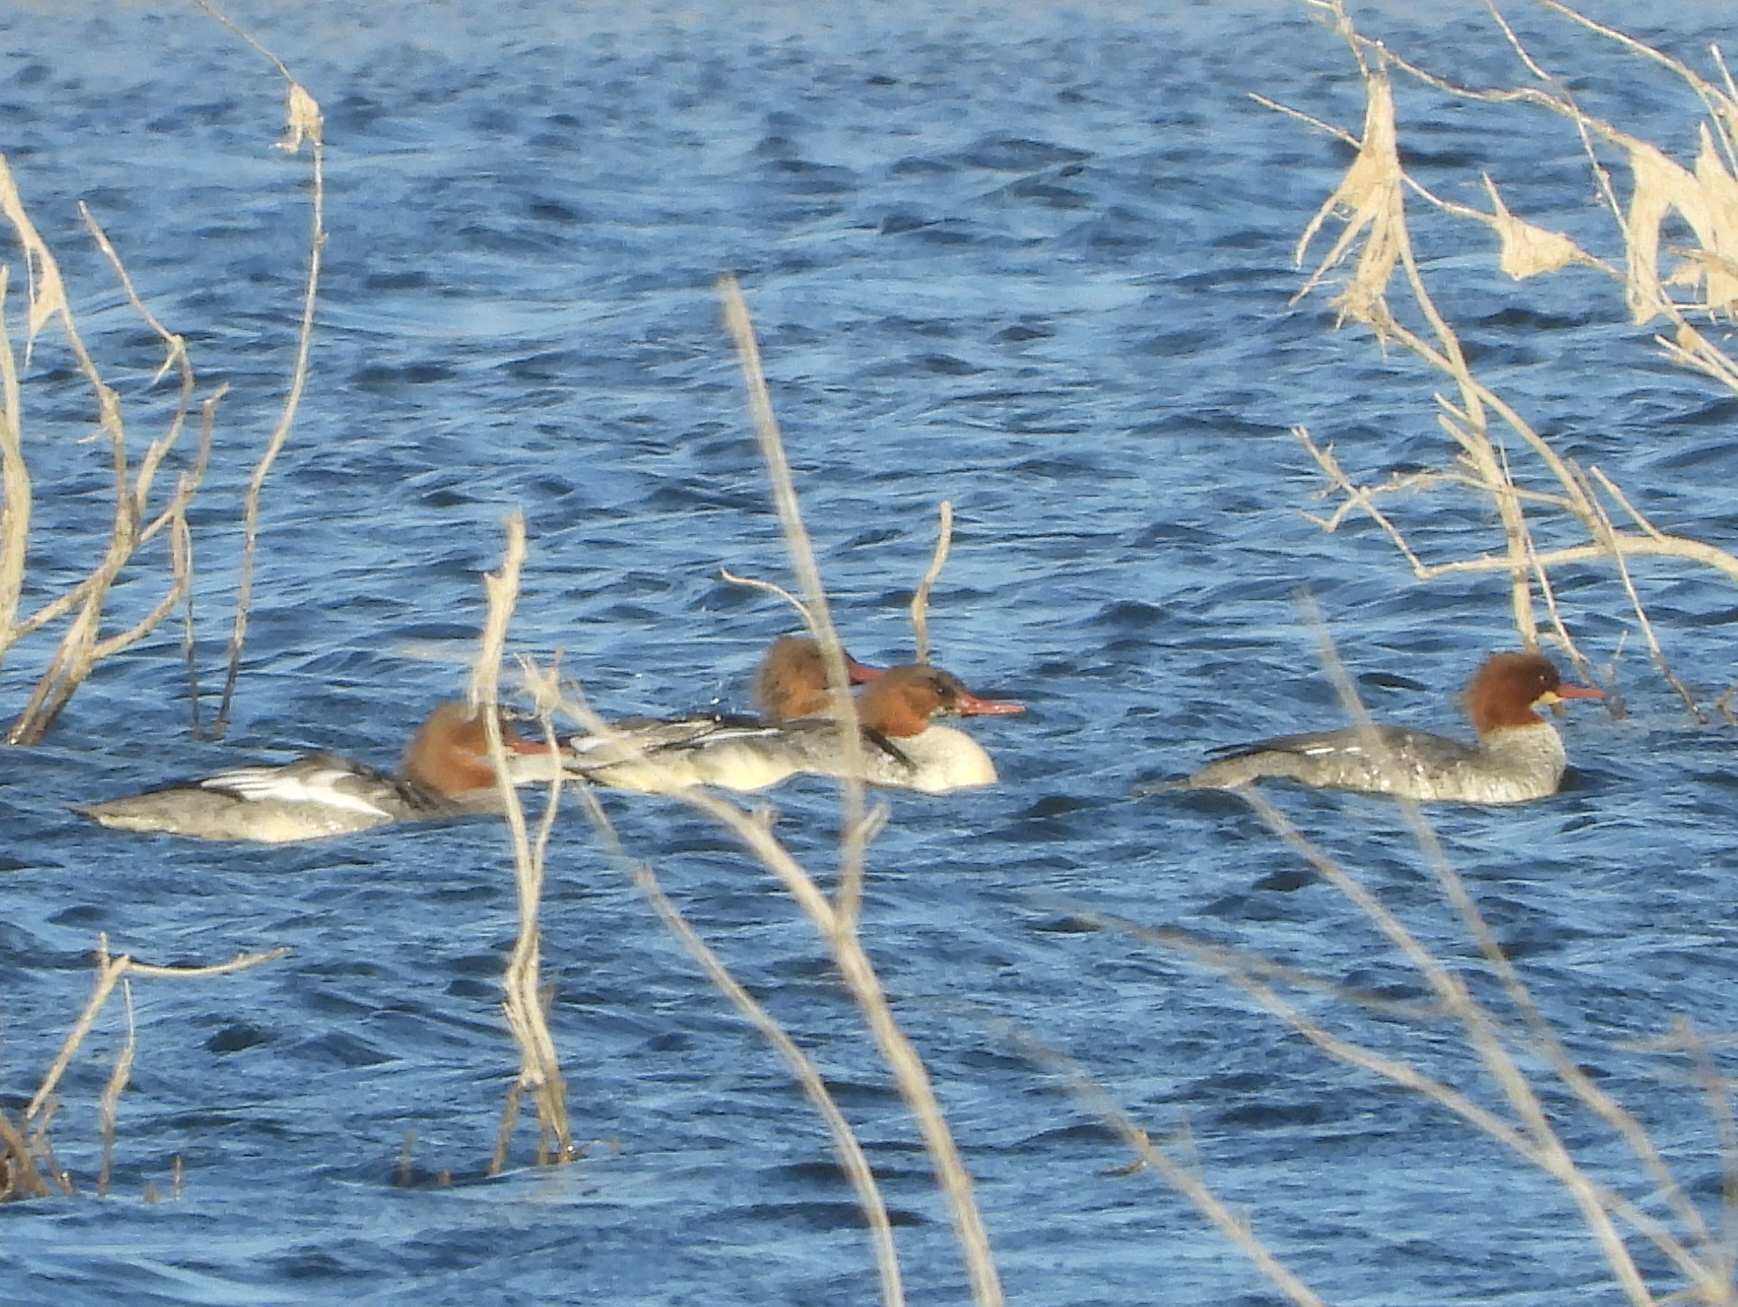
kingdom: Animalia
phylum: Chordata
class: Aves
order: Anseriformes
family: Anatidae
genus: Mergus
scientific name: Mergus merganser
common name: Common merganser
